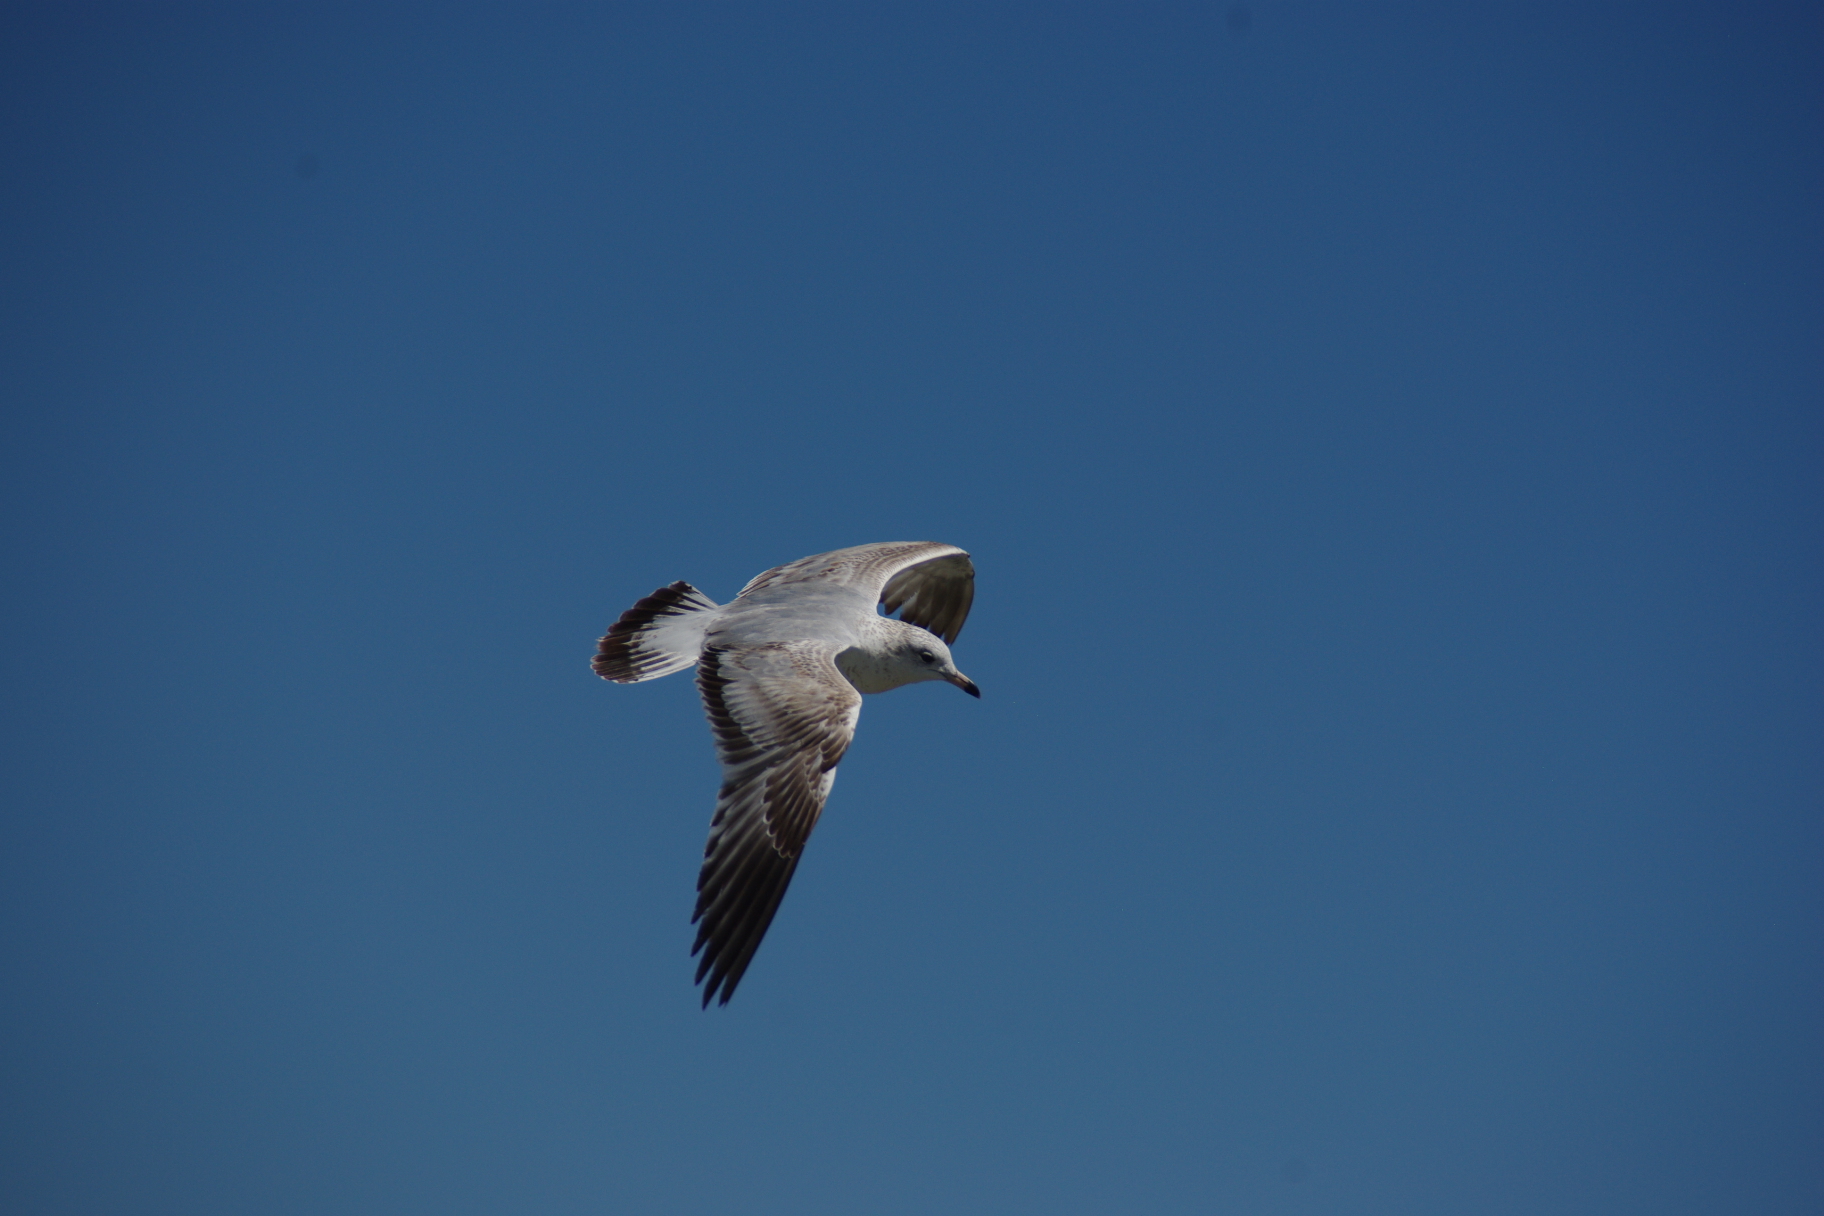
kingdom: Animalia
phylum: Chordata
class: Aves
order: Charadriiformes
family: Laridae
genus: Larus
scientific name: Larus delawarensis
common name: Ring-billed gull
